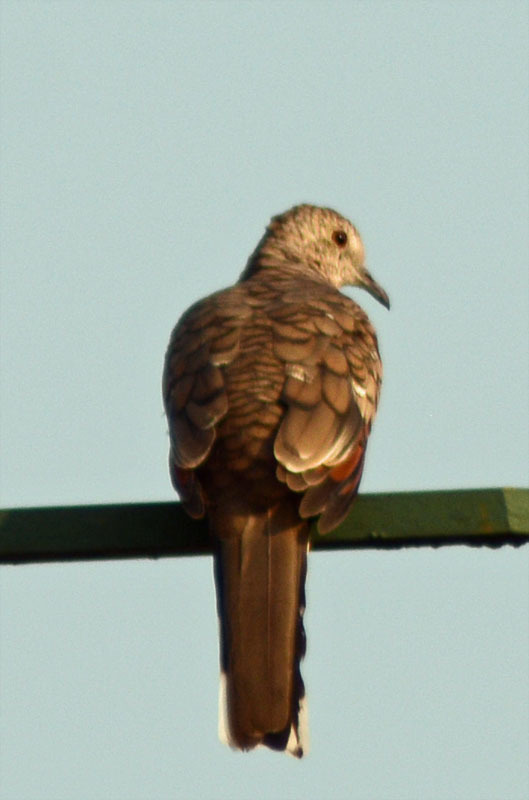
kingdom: Animalia
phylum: Chordata
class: Aves
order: Columbiformes
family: Columbidae
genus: Columbina
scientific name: Columbina inca
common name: Inca dove
